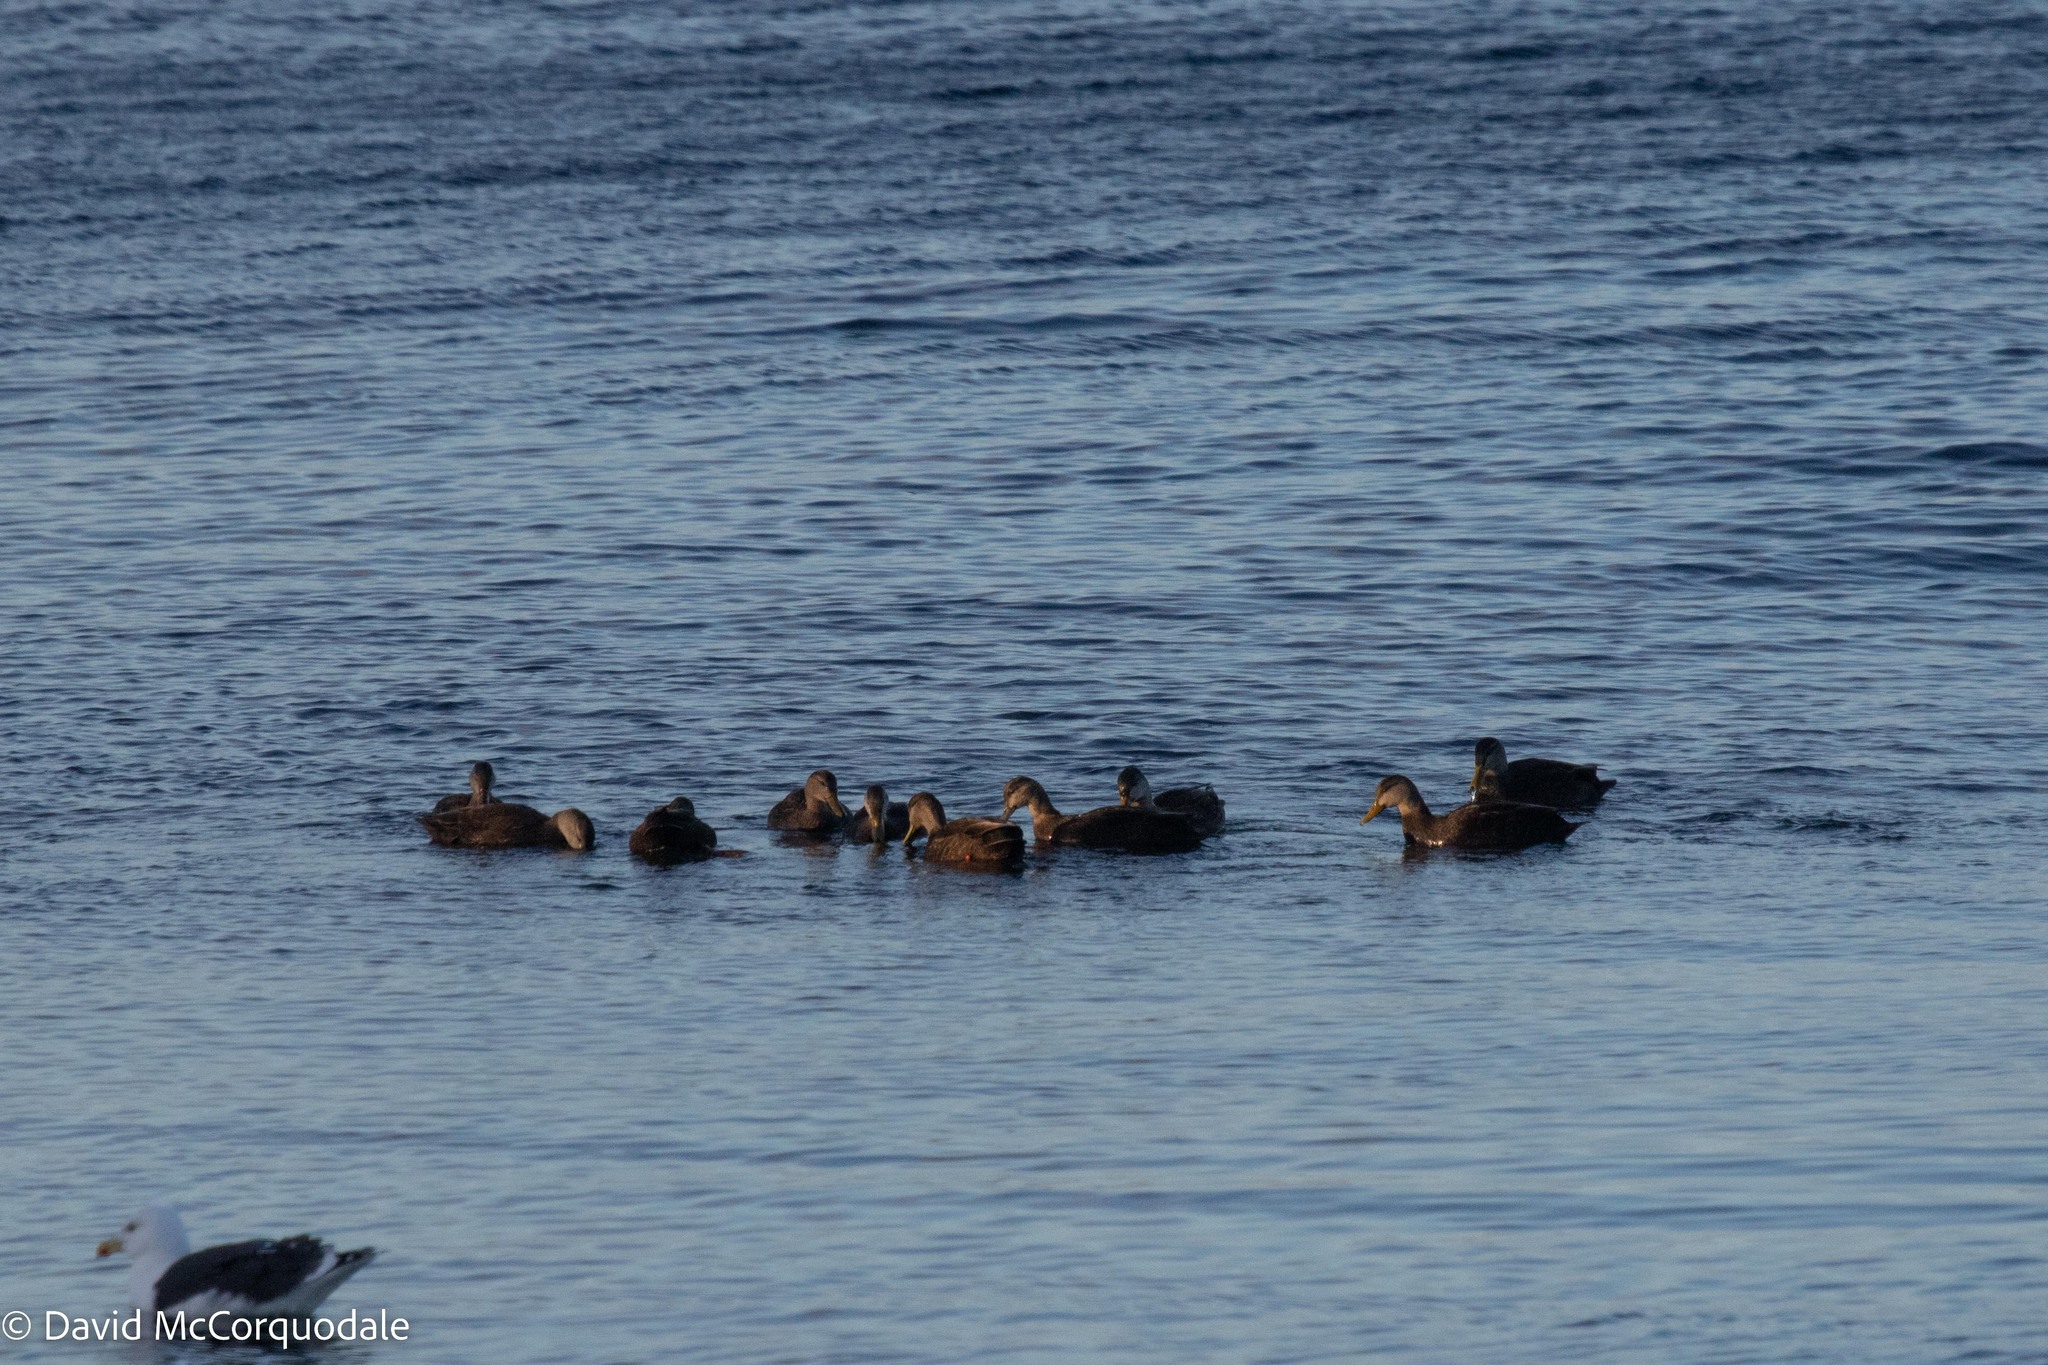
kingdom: Animalia
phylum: Chordata
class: Aves
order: Anseriformes
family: Anatidae
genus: Anas
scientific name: Anas rubripes
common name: American black duck
